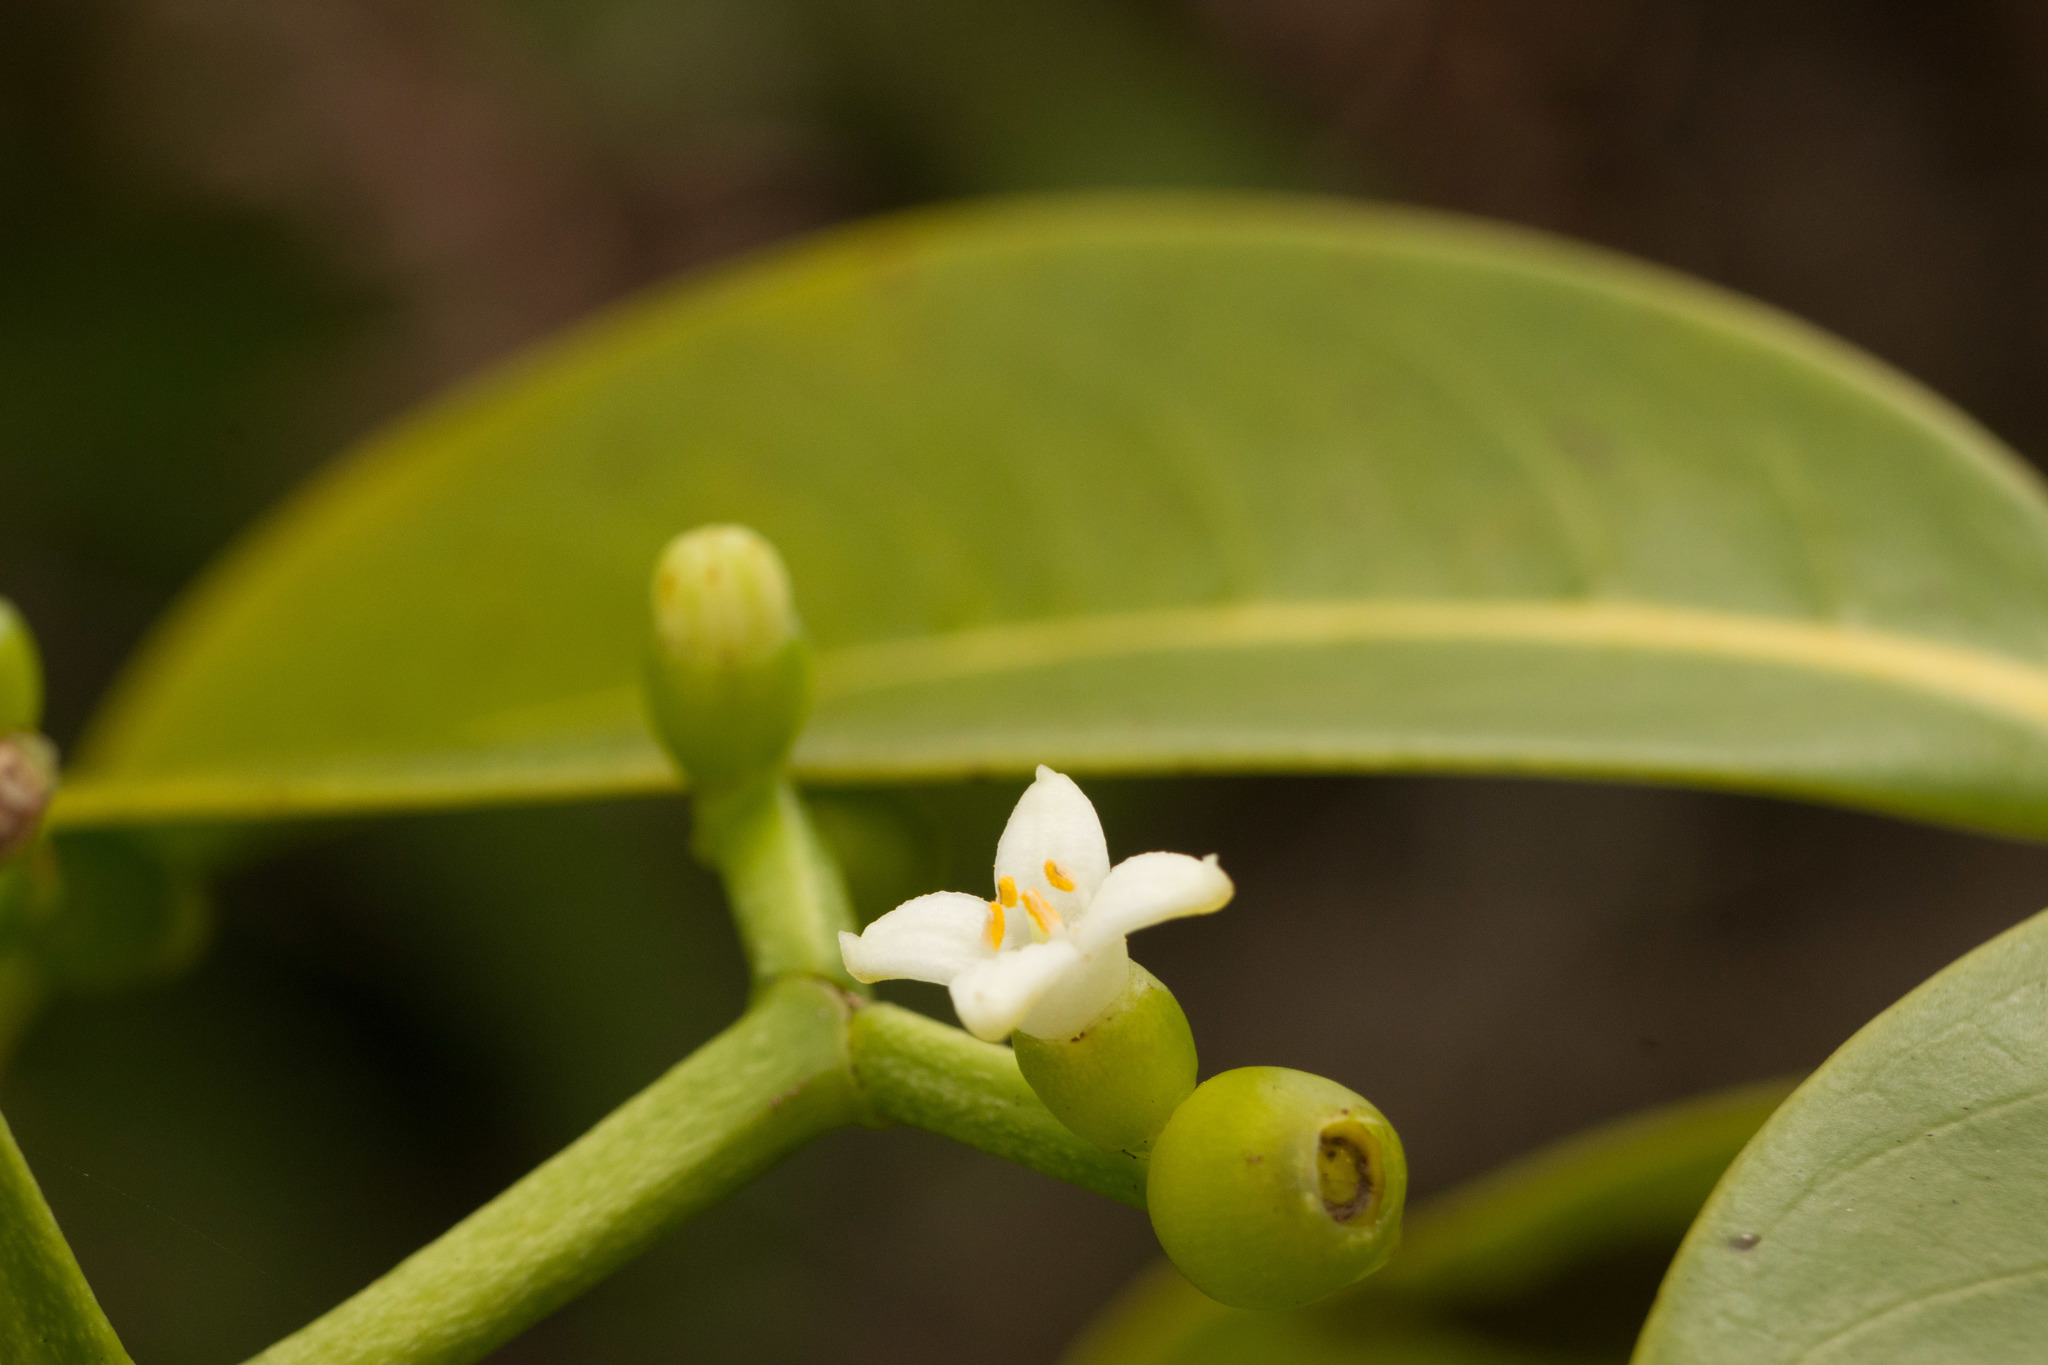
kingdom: Plantae
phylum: Tracheophyta
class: Magnoliopsida
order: Gentianales
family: Rubiaceae
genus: Psychotria
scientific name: Psychotria mariniana
